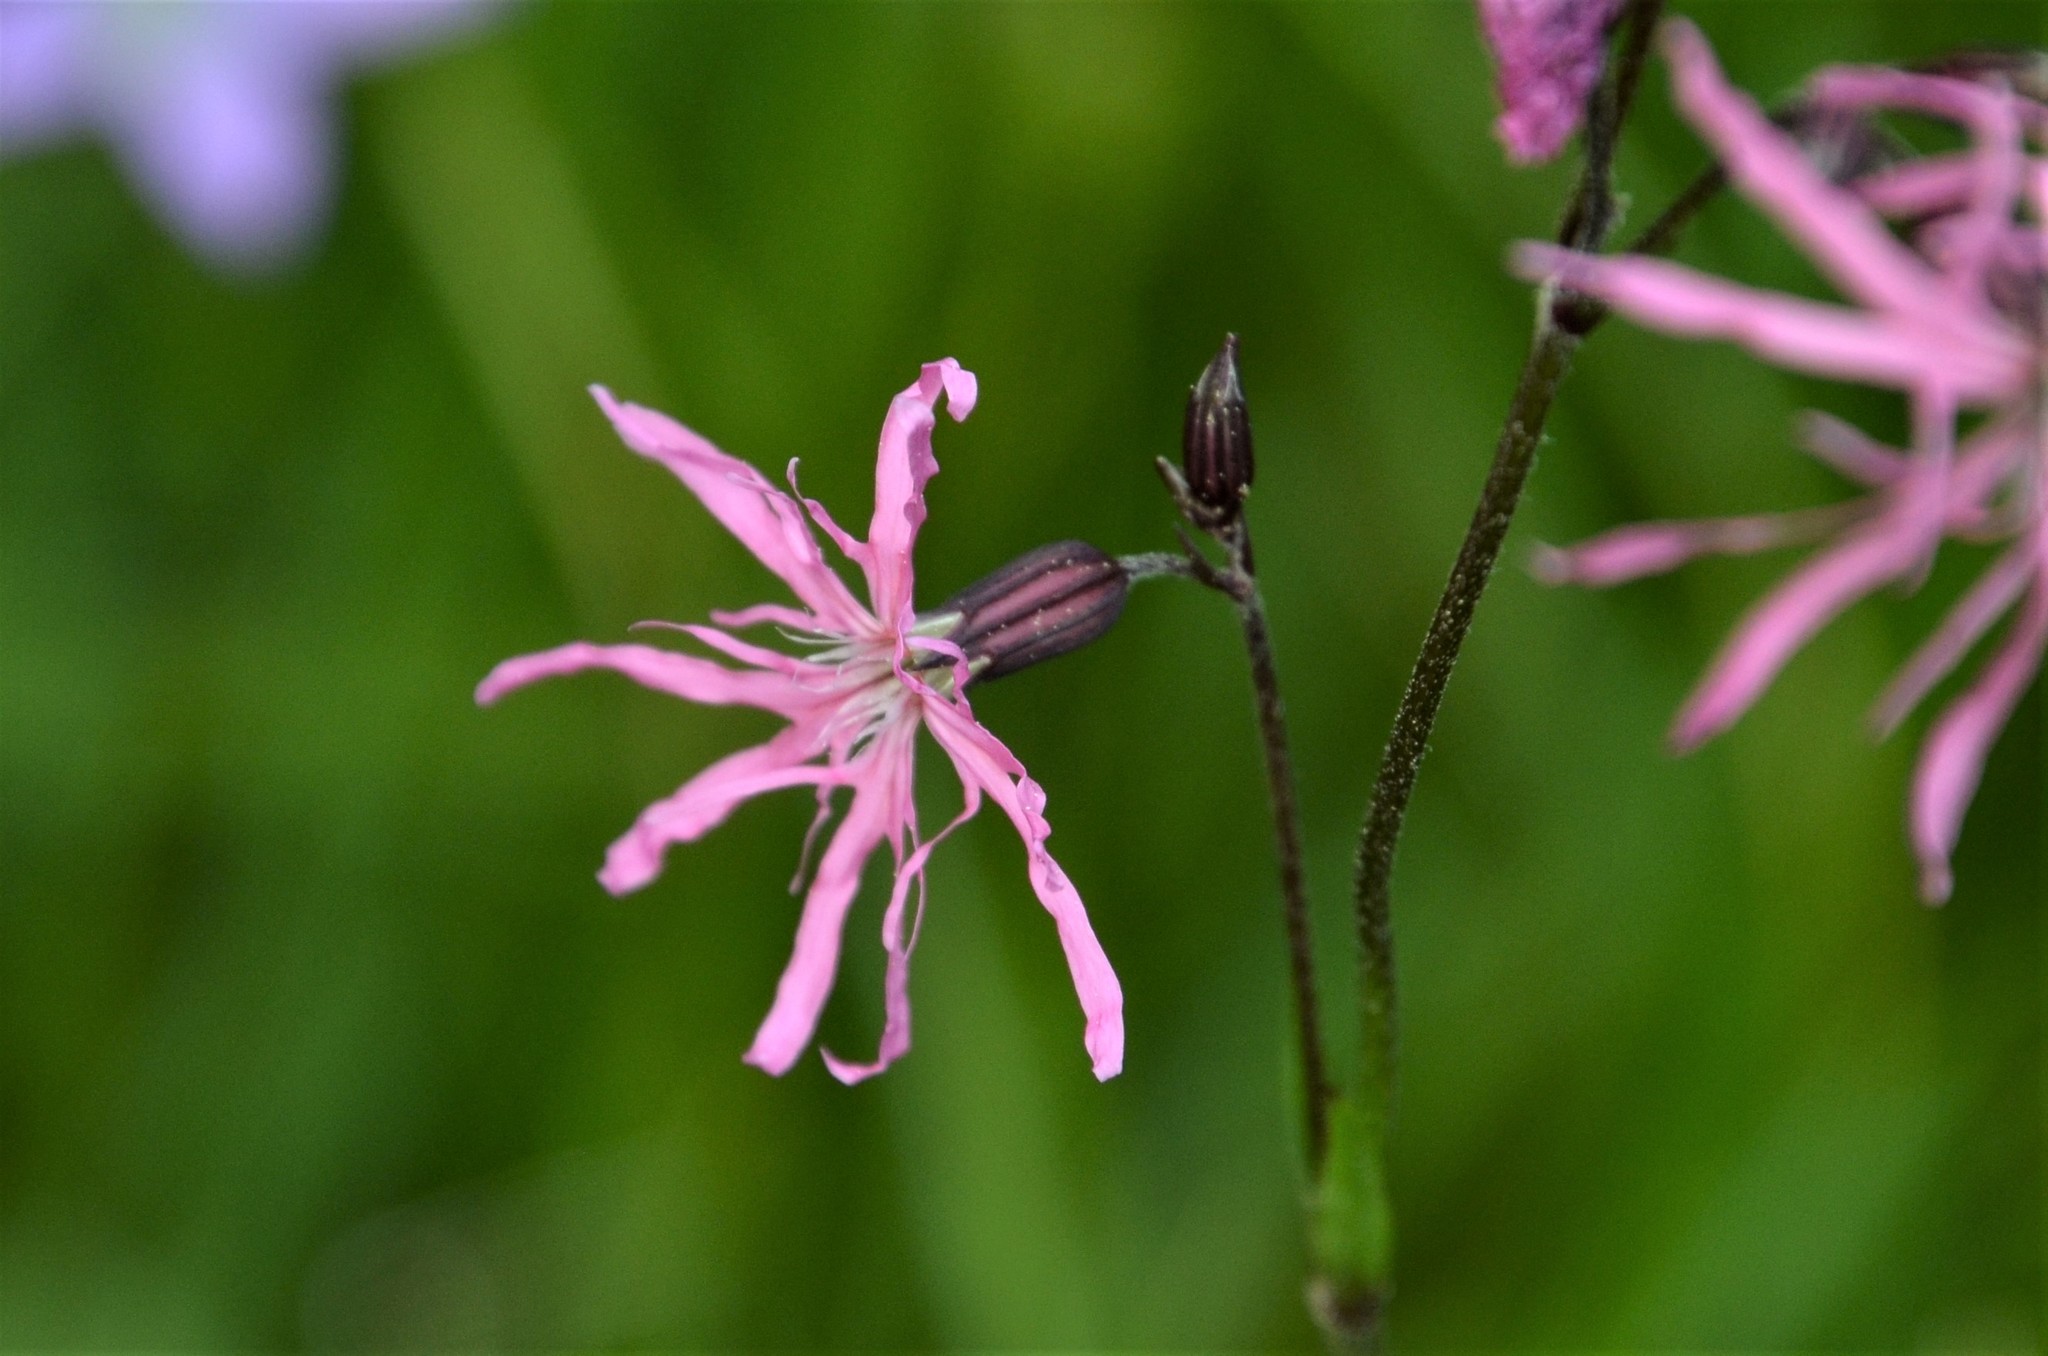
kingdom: Plantae
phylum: Tracheophyta
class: Magnoliopsida
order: Caryophyllales
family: Caryophyllaceae
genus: Silene
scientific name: Silene flos-cuculi
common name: Ragged-robin
